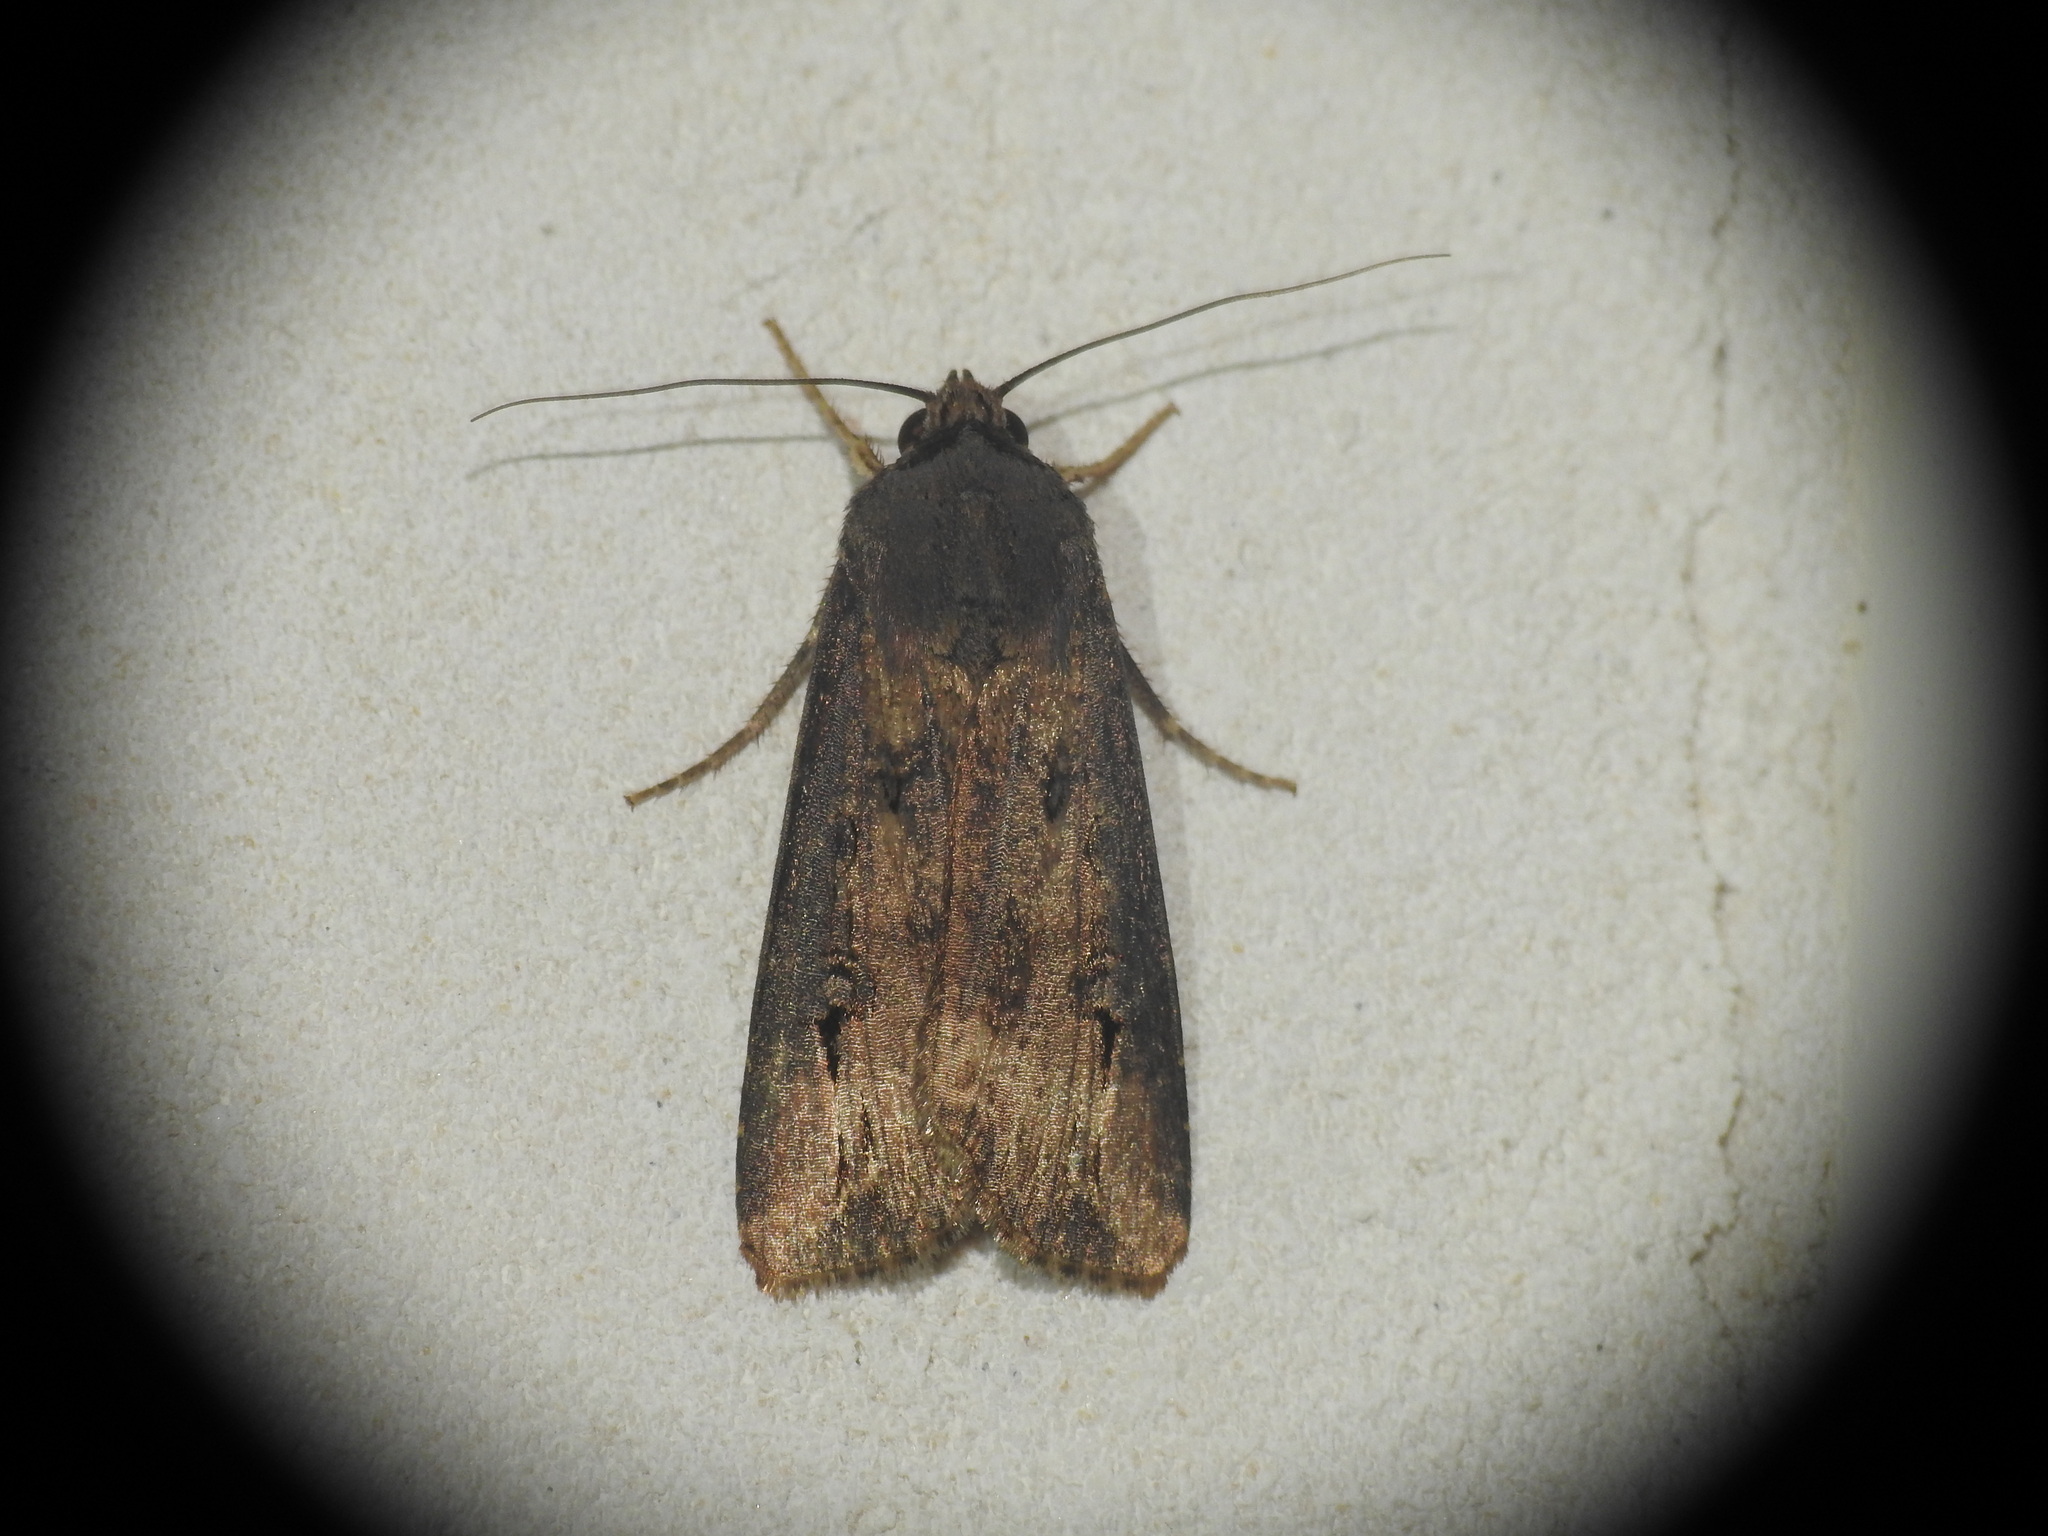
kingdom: Animalia
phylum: Arthropoda
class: Insecta
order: Lepidoptera
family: Noctuidae
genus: Agrotis
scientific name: Agrotis ipsilon
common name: Dark sword-grass
